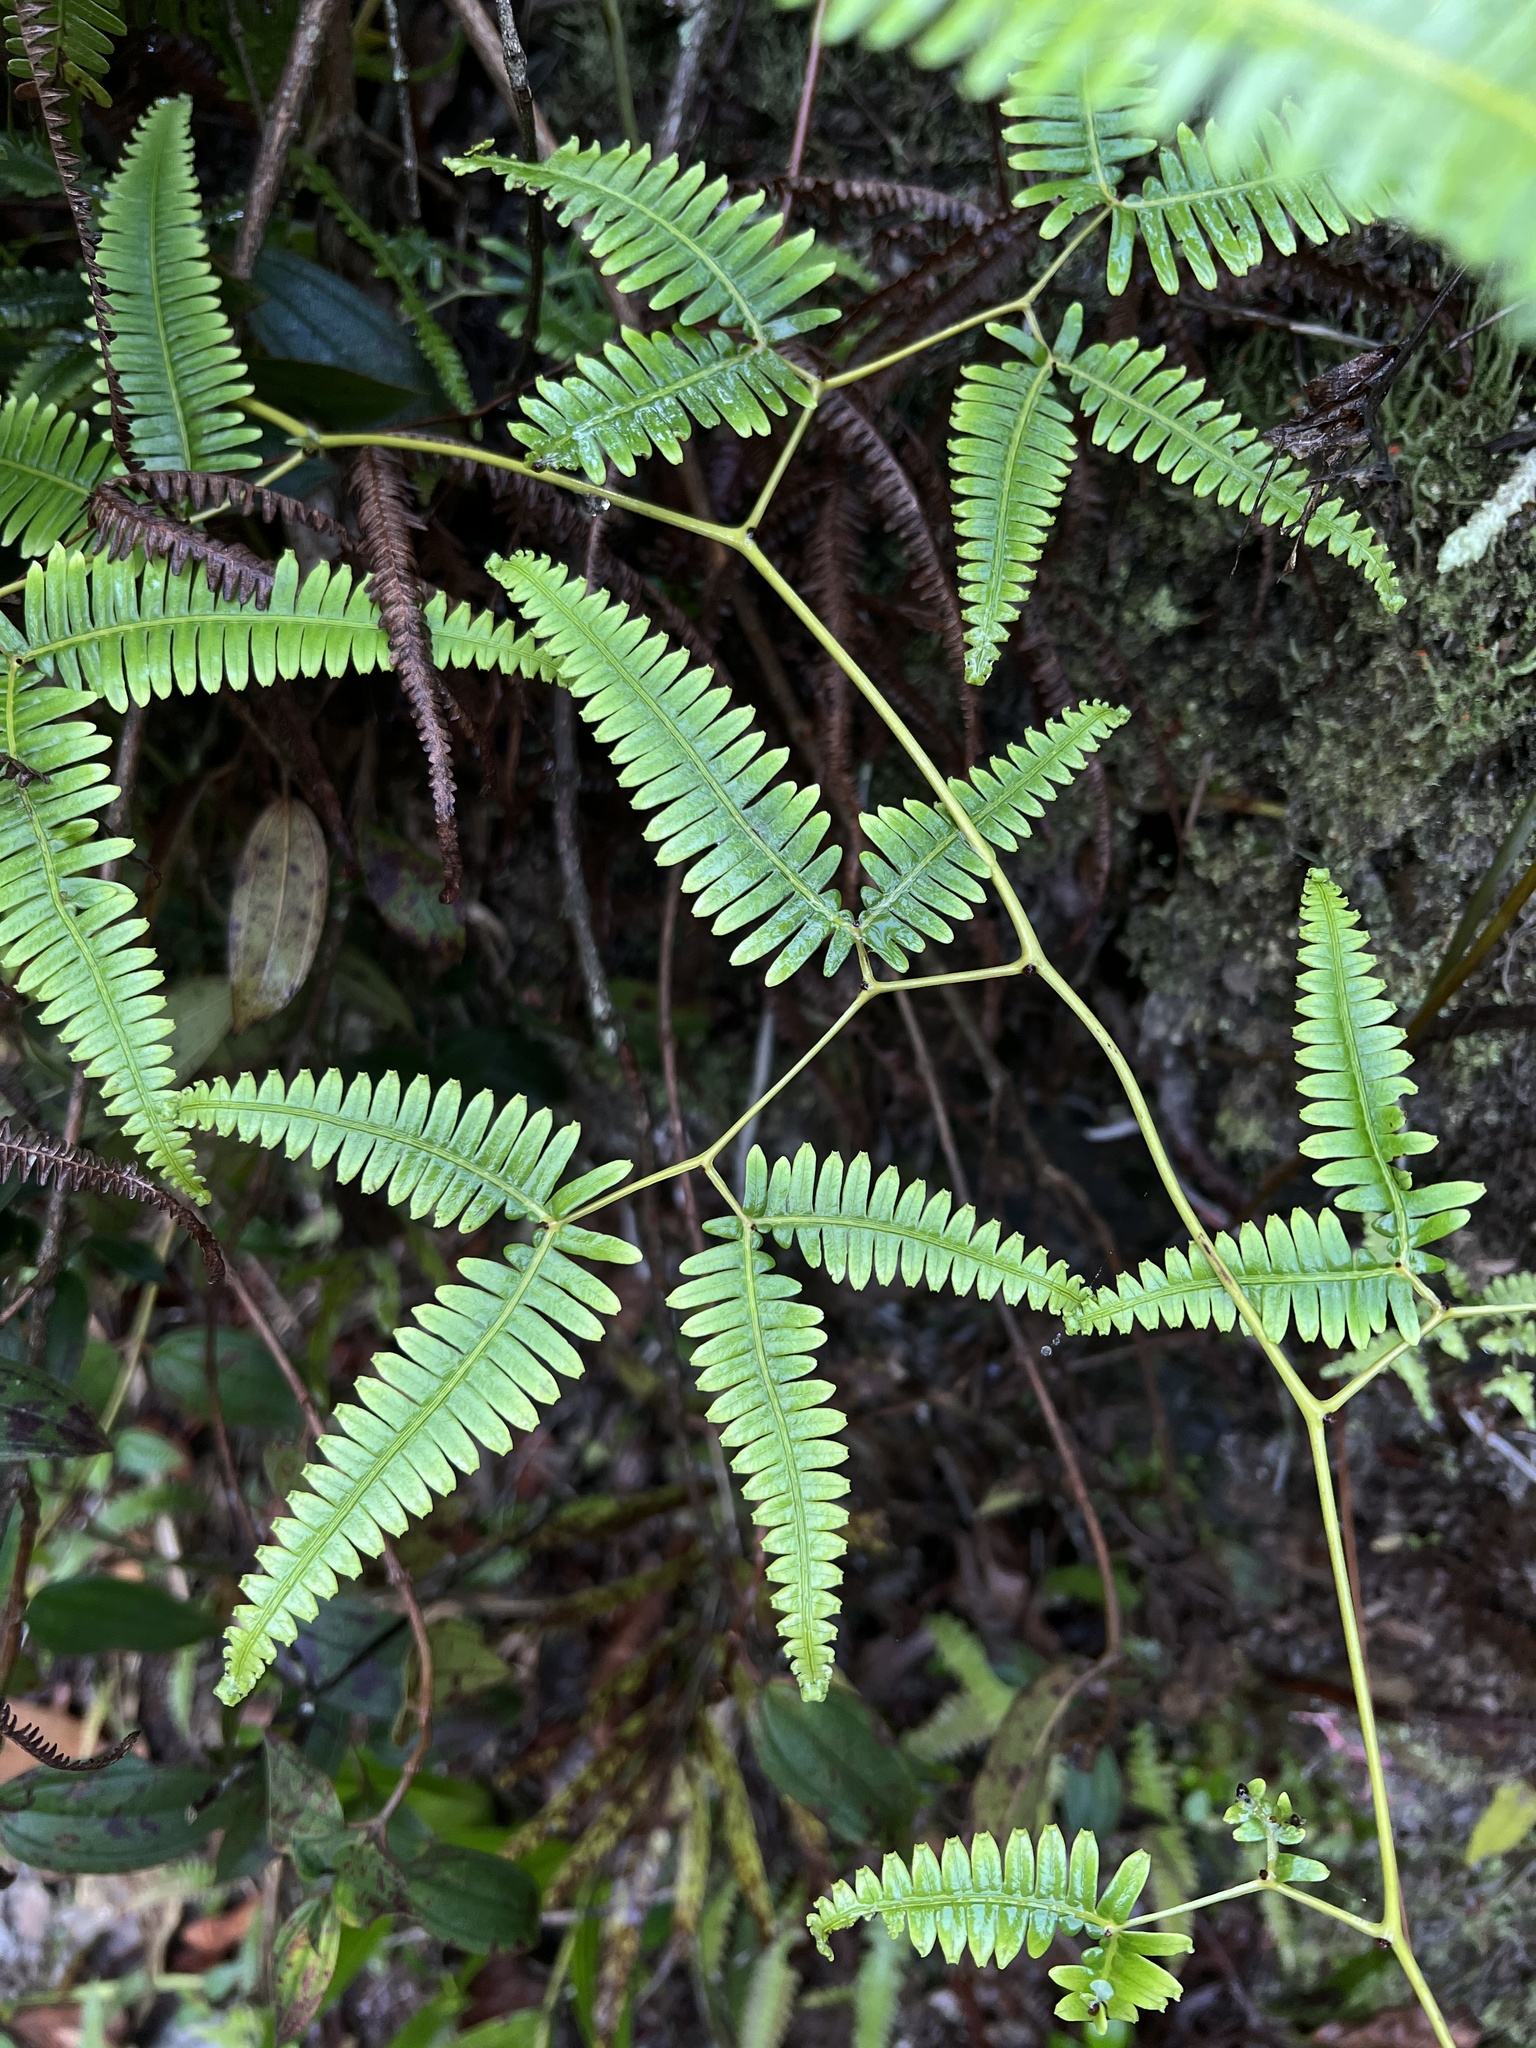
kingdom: Plantae
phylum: Tracheophyta
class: Polypodiopsida
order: Gleicheniales
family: Gleicheniaceae
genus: Gleichenella
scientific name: Gleichenella pectinata
